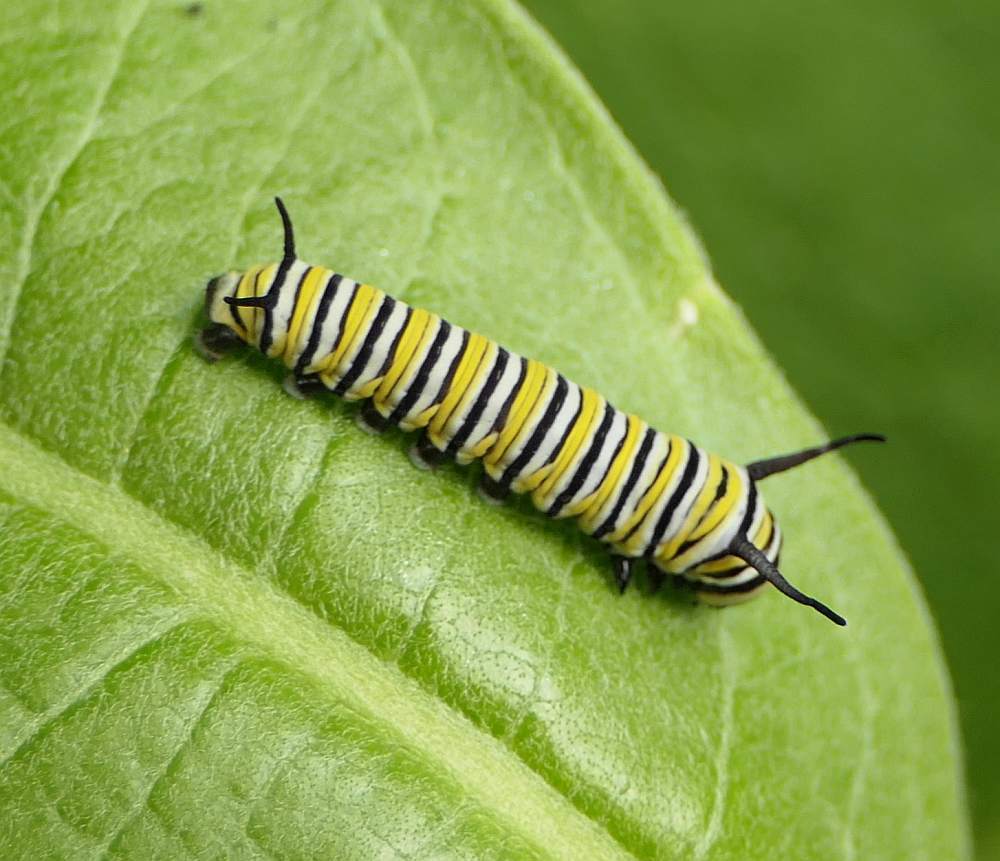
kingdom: Animalia
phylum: Arthropoda
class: Insecta
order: Lepidoptera
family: Nymphalidae
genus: Danaus
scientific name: Danaus plexippus
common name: Monarch
